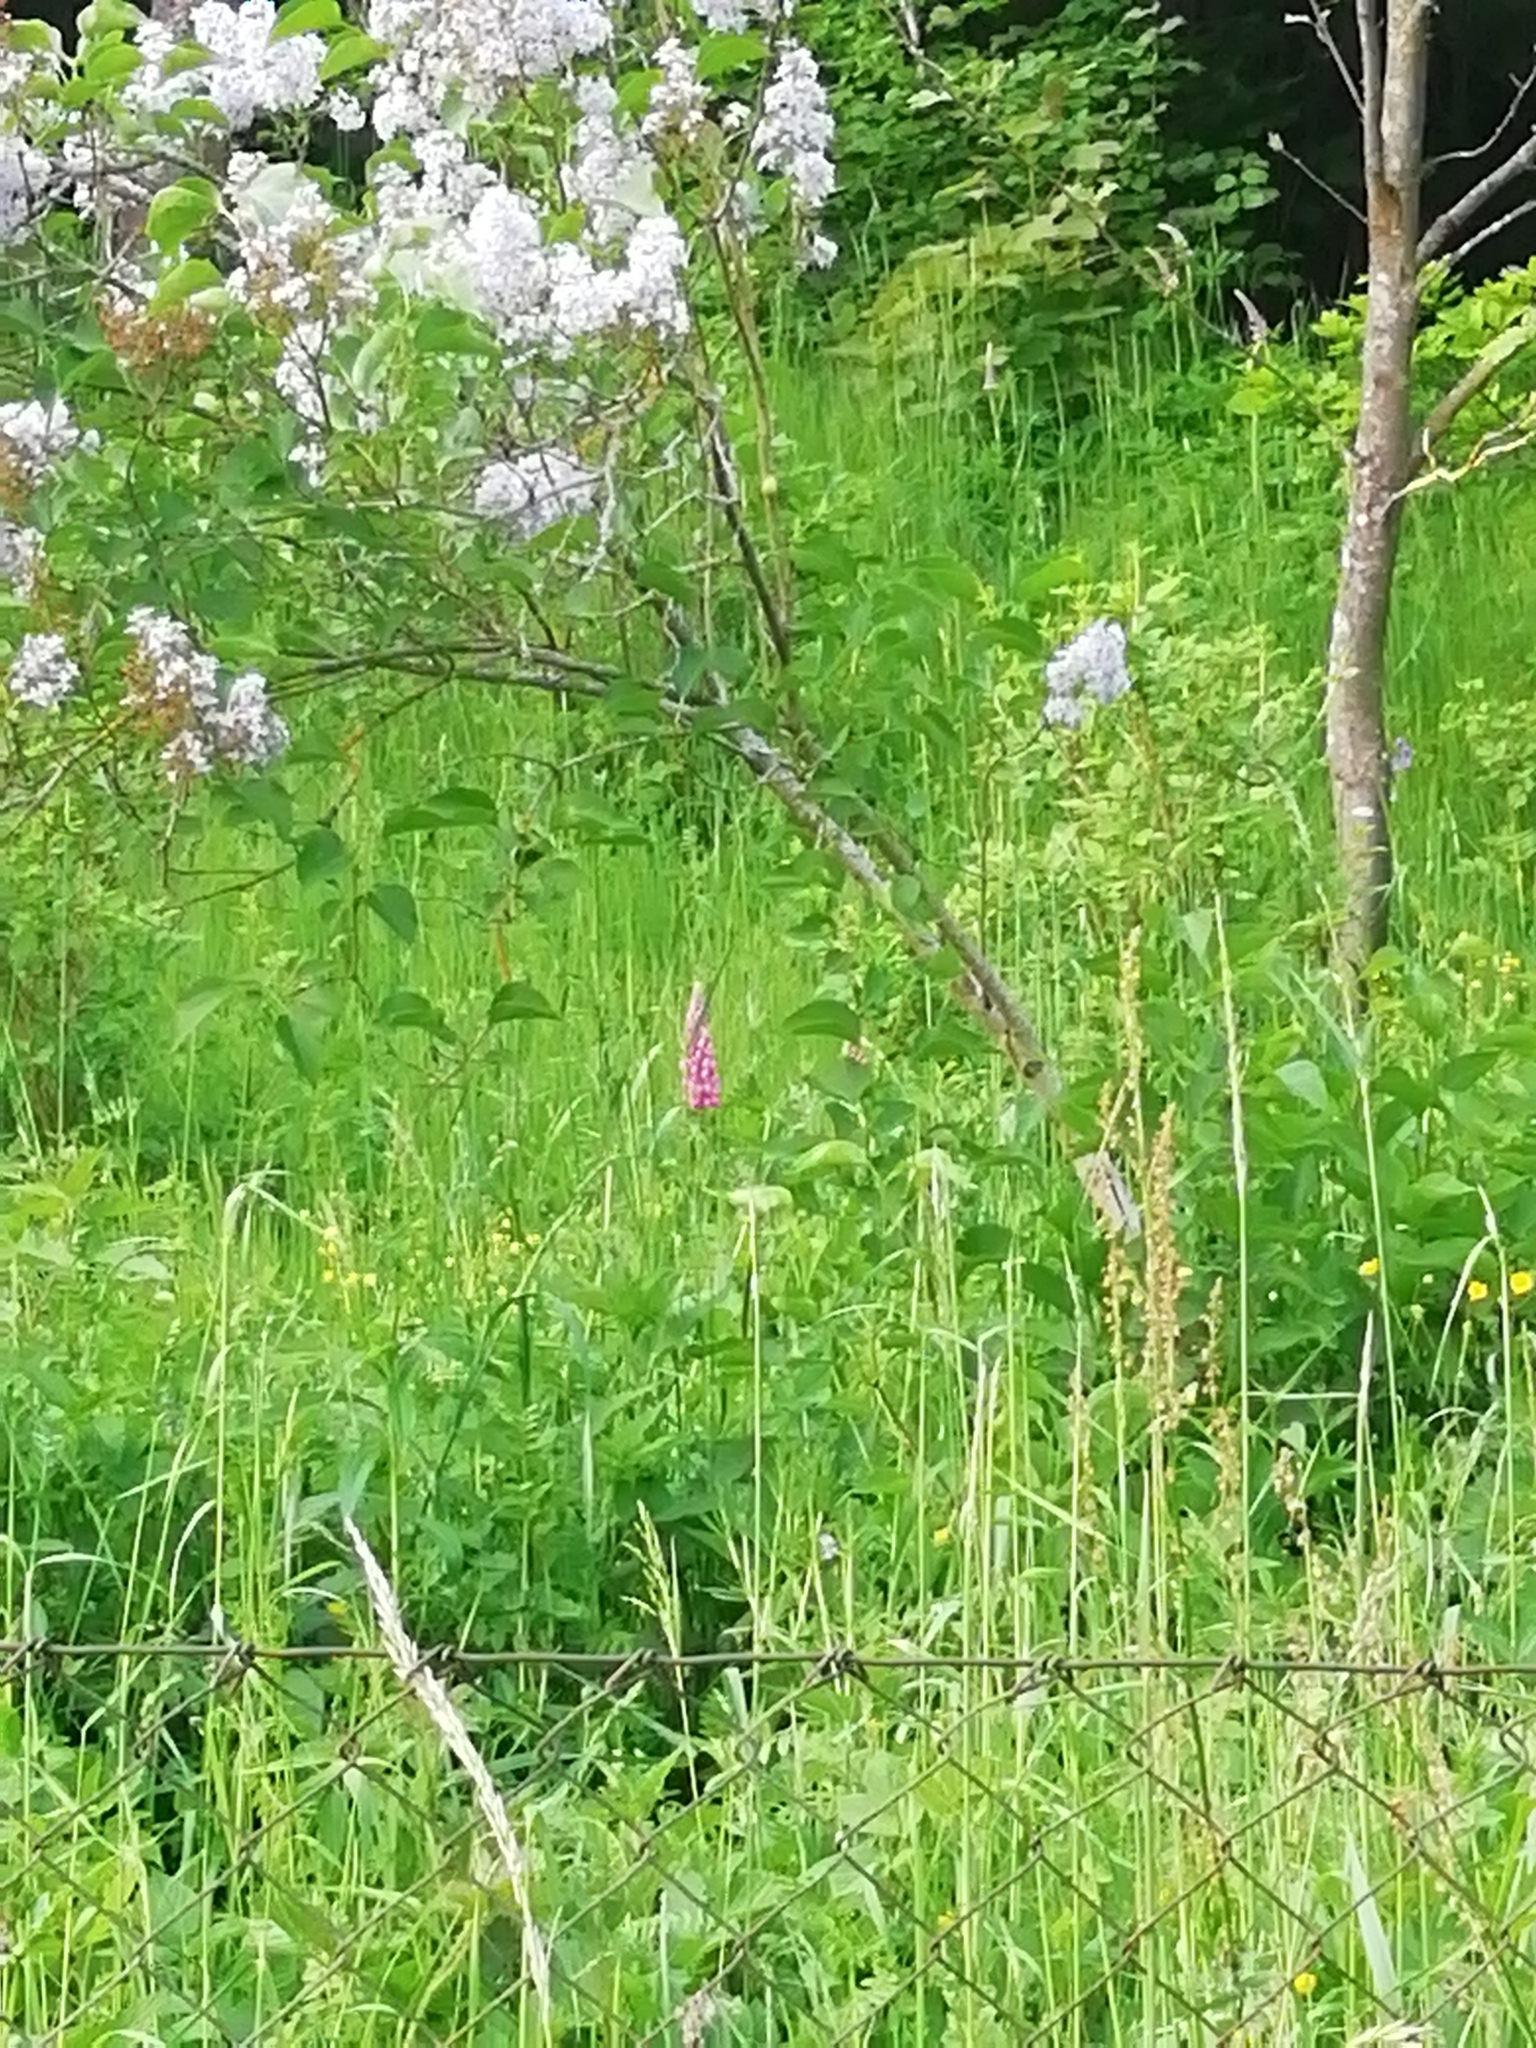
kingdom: Plantae
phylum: Tracheophyta
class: Magnoliopsida
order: Fabales
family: Fabaceae
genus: Lupinus
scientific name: Lupinus polyphyllus
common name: Garden lupin
